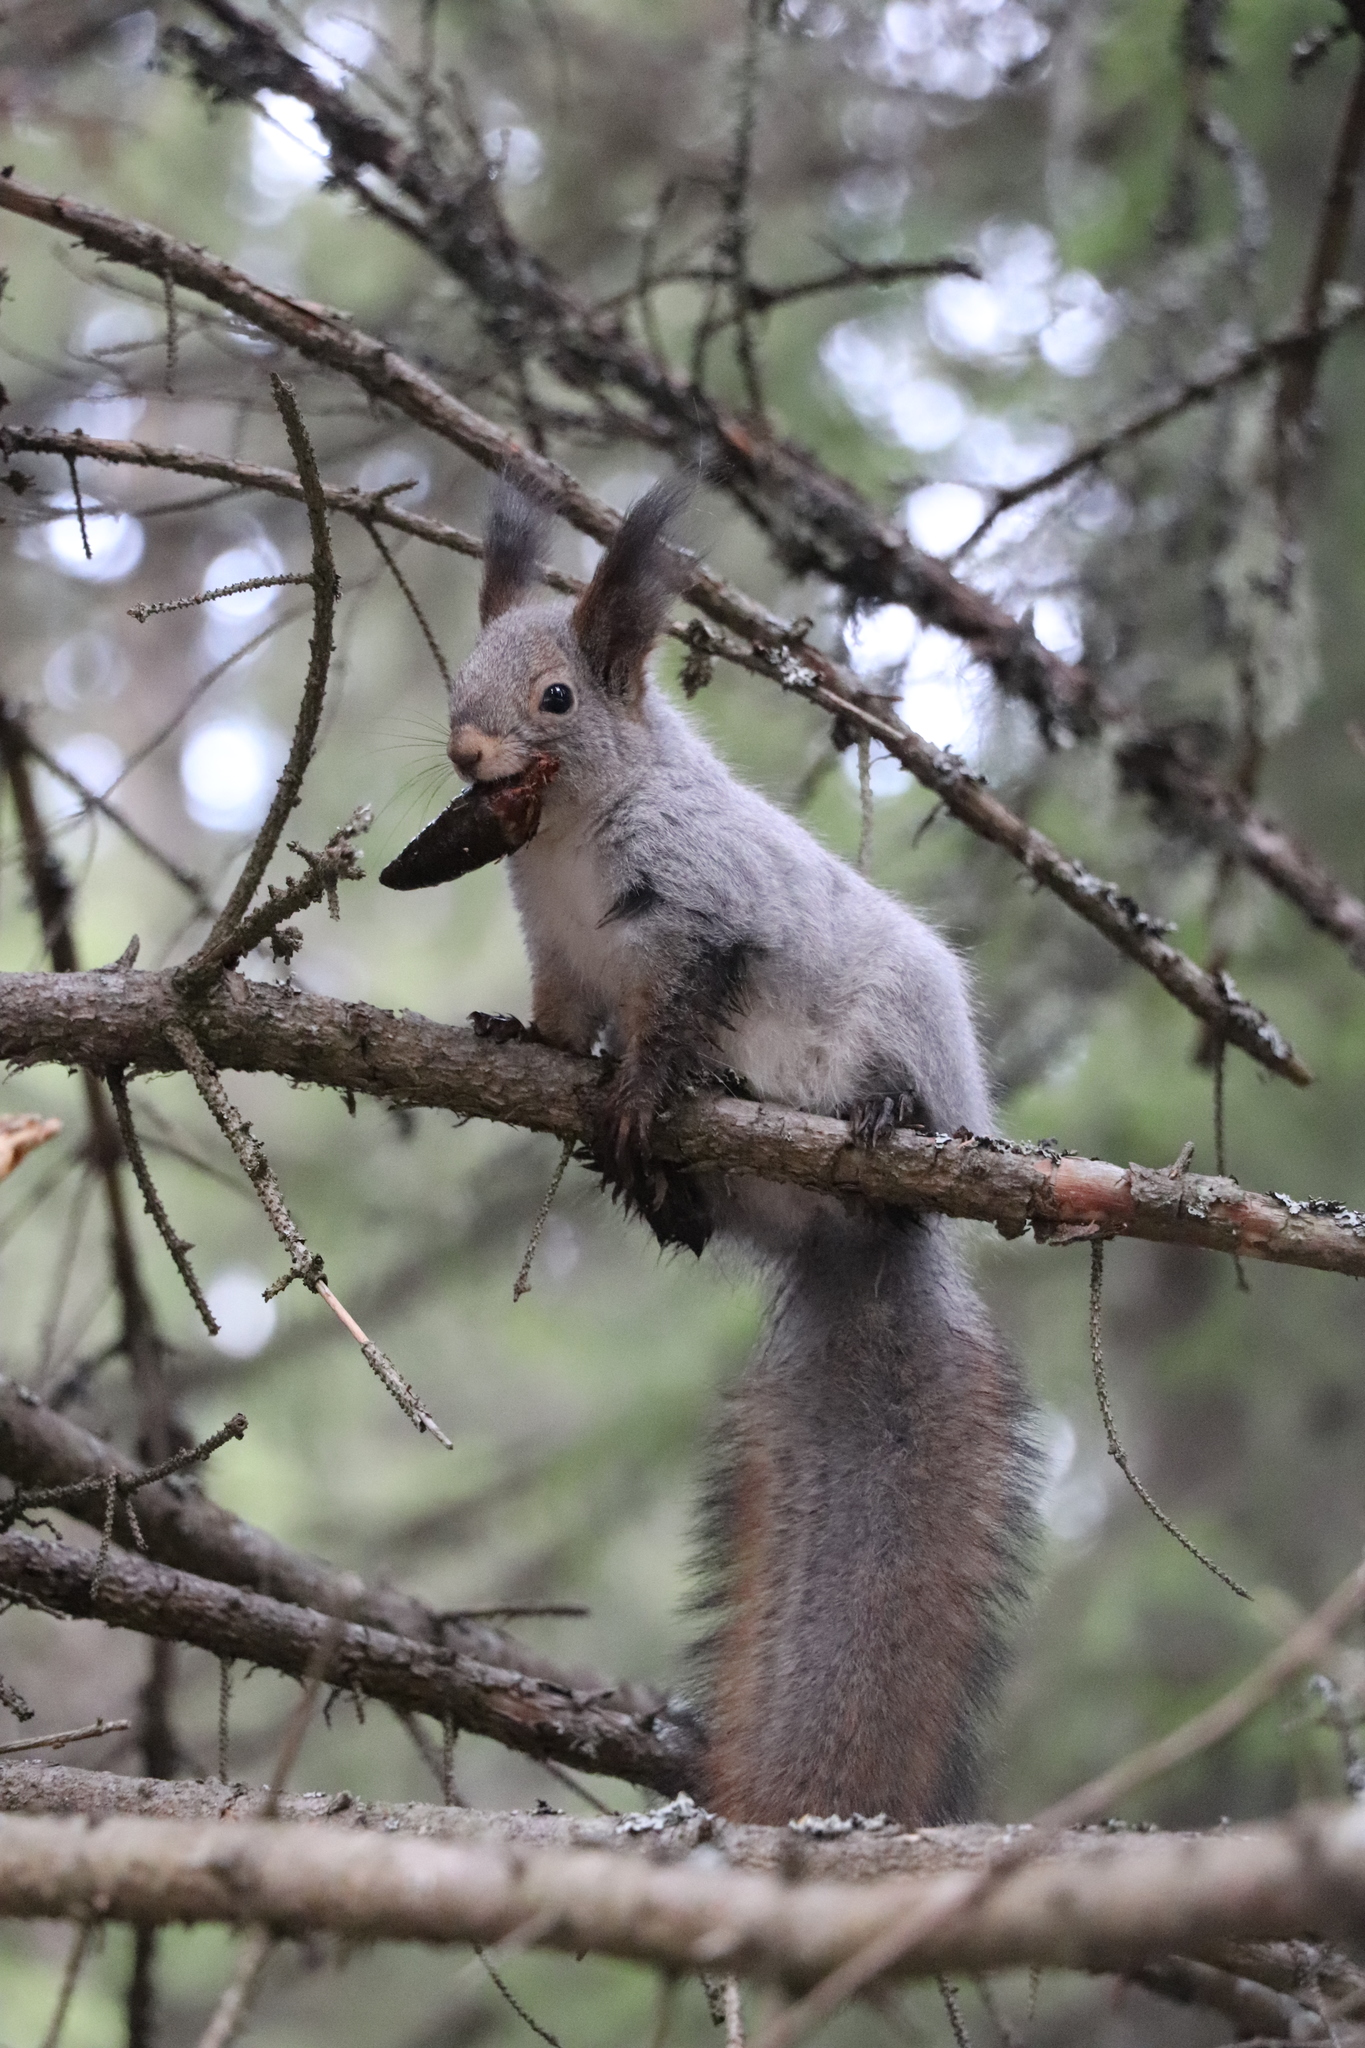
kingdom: Animalia
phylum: Chordata
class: Mammalia
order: Rodentia
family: Sciuridae
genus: Sciurus
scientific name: Sciurus vulgaris
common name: Eurasian red squirrel
